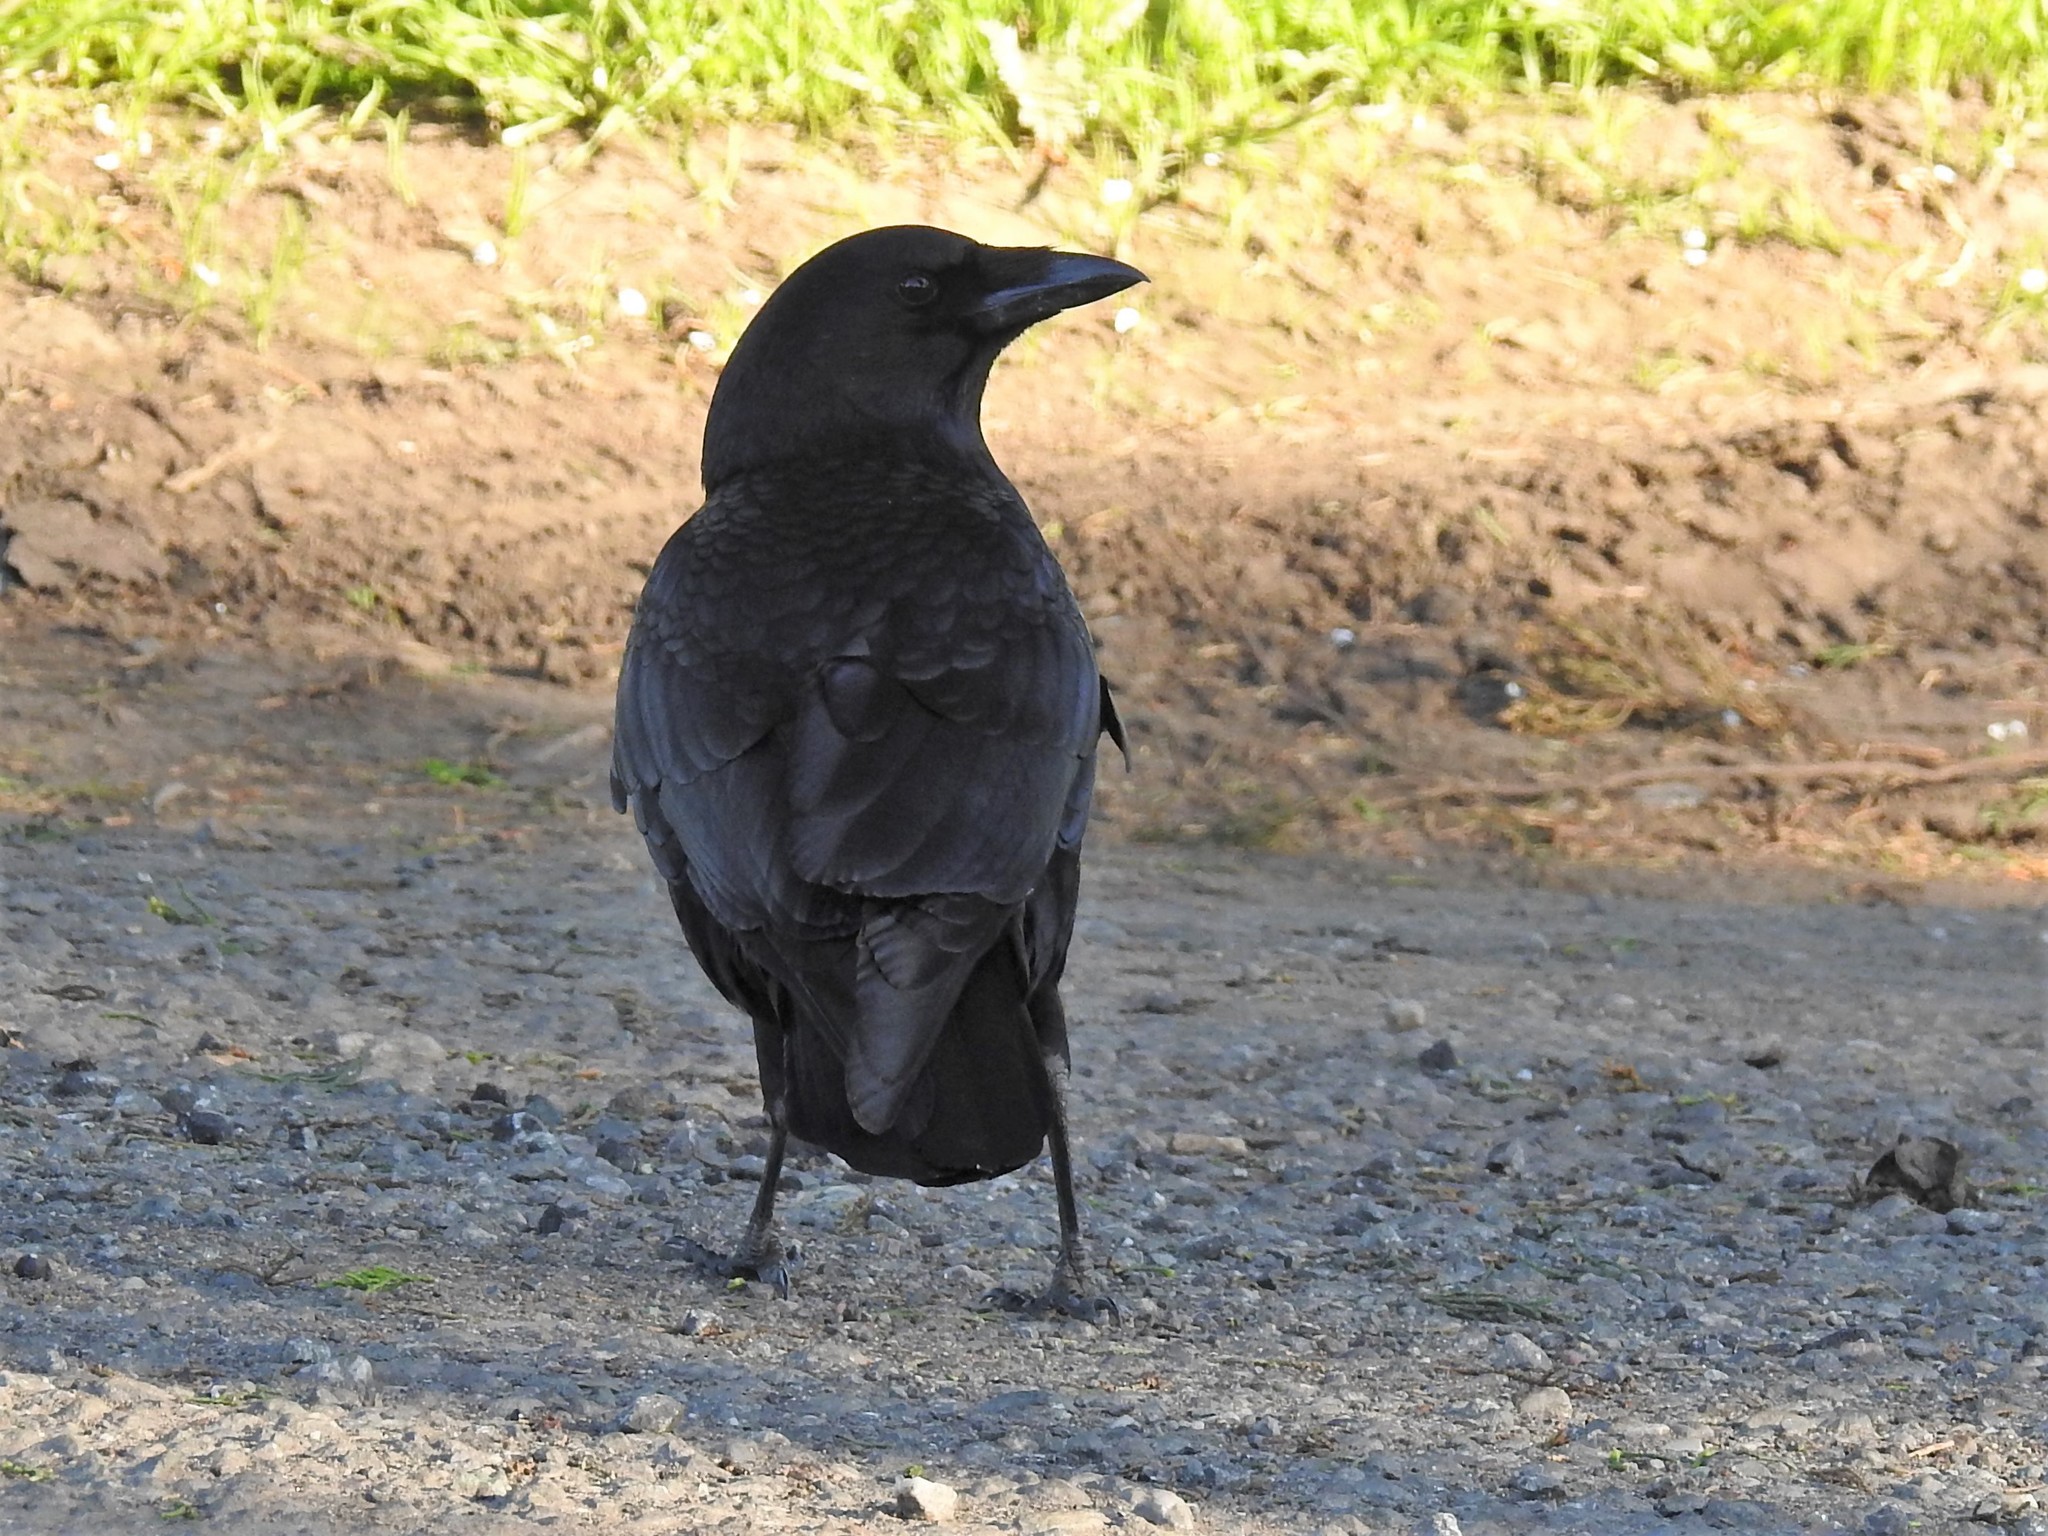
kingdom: Animalia
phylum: Chordata
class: Aves
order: Passeriformes
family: Corvidae
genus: Corvus
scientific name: Corvus brachyrhynchos
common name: American crow
